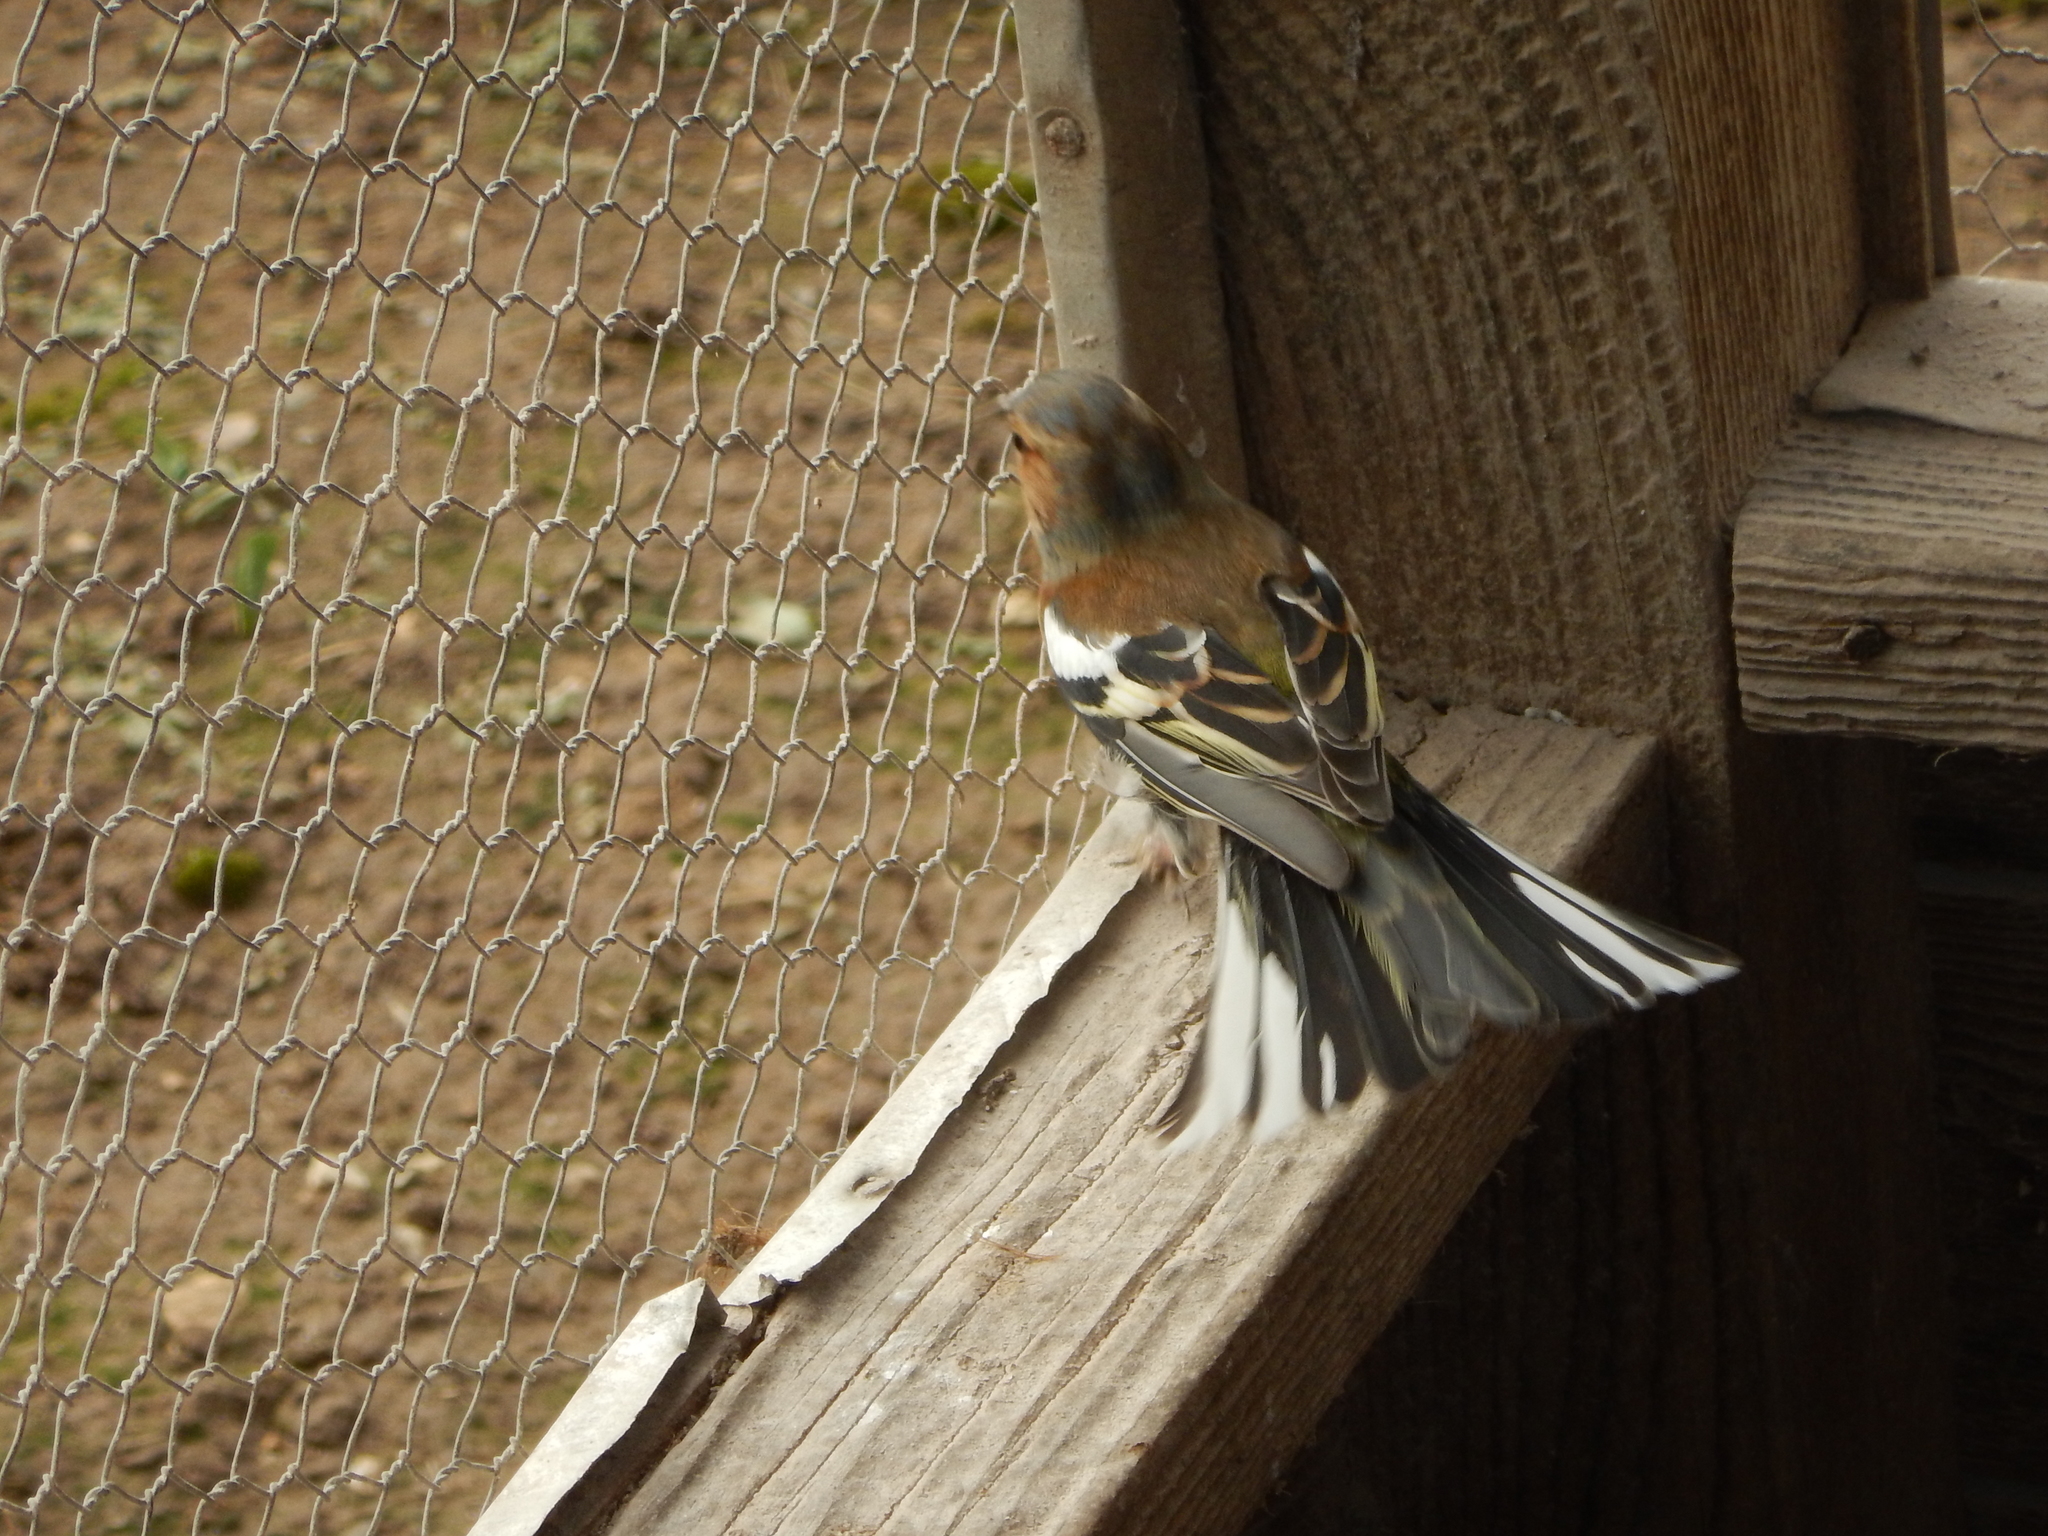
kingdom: Animalia
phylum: Chordata
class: Aves
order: Passeriformes
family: Fringillidae
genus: Fringilla
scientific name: Fringilla coelebs
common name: Common chaffinch
